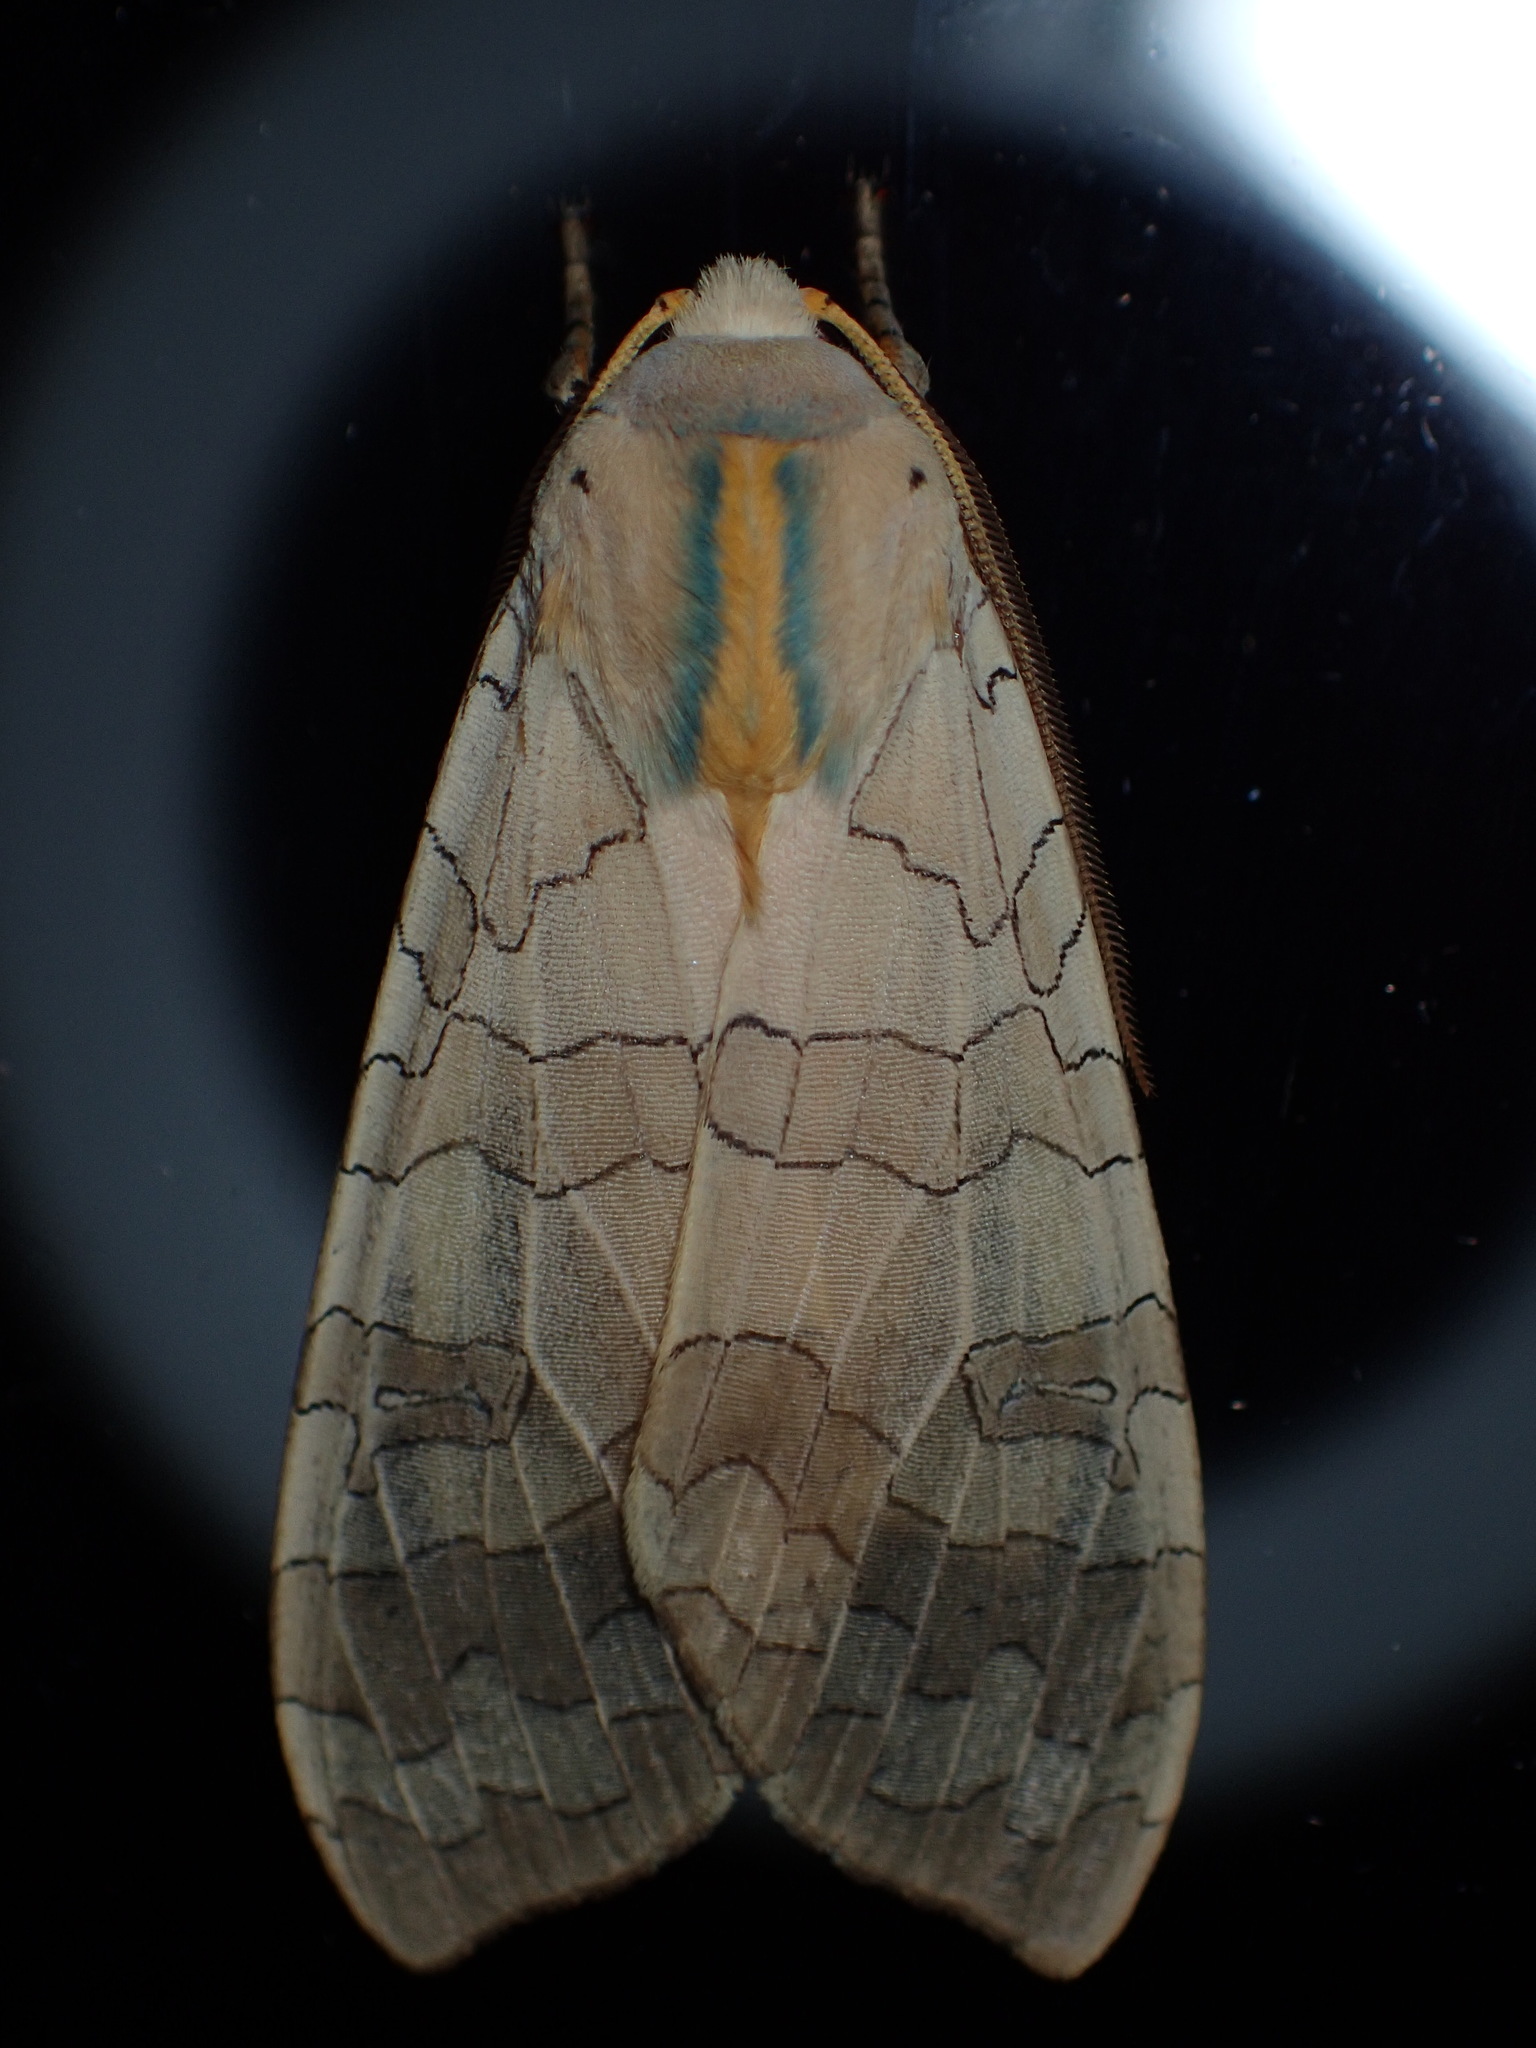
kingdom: Animalia
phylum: Arthropoda
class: Insecta
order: Lepidoptera
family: Erebidae
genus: Halysidota
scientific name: Halysidota
